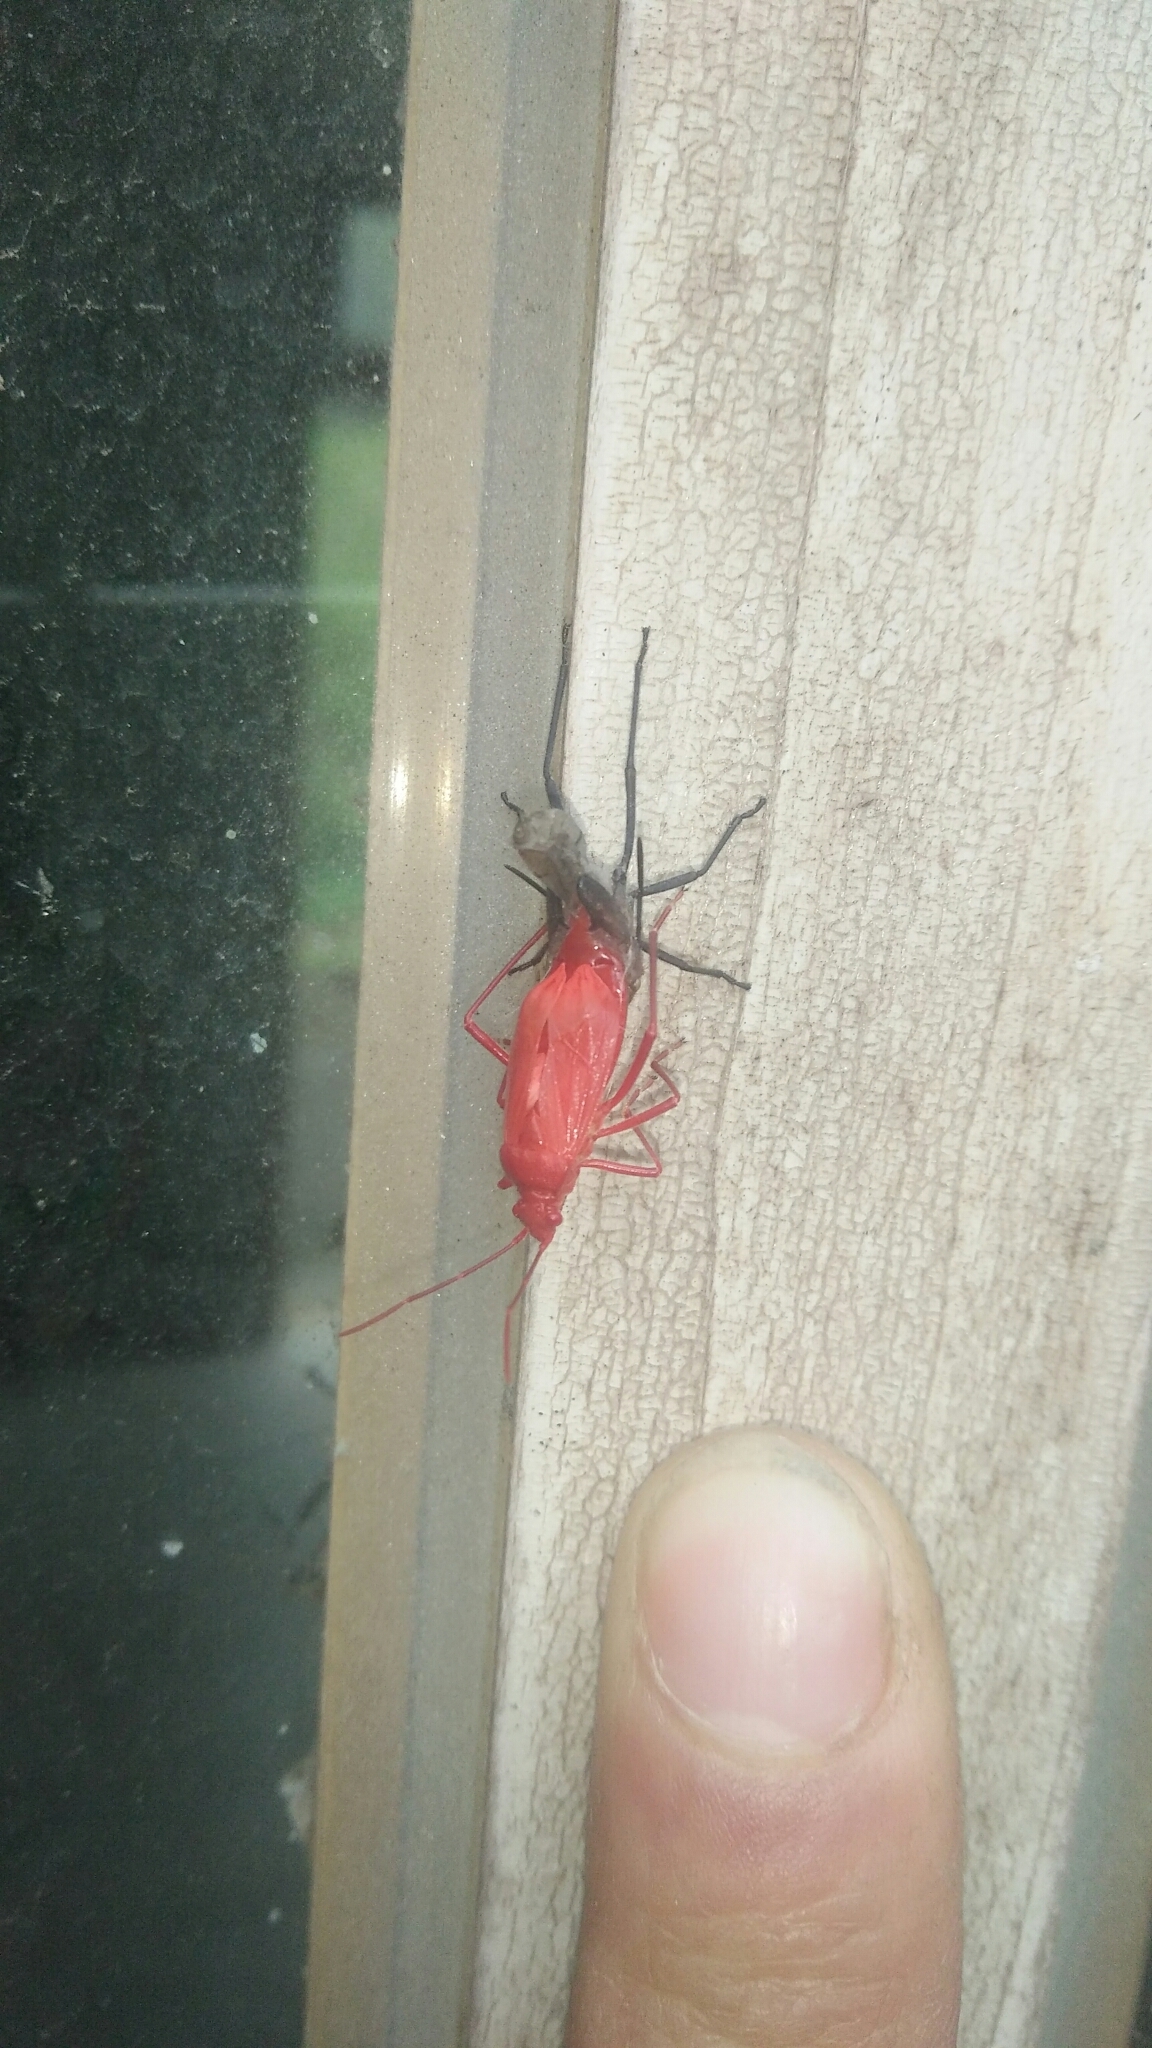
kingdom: Animalia
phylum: Arthropoda
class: Insecta
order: Hemiptera
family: Rhopalidae
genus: Leptocoris
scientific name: Leptocoris vicinus
